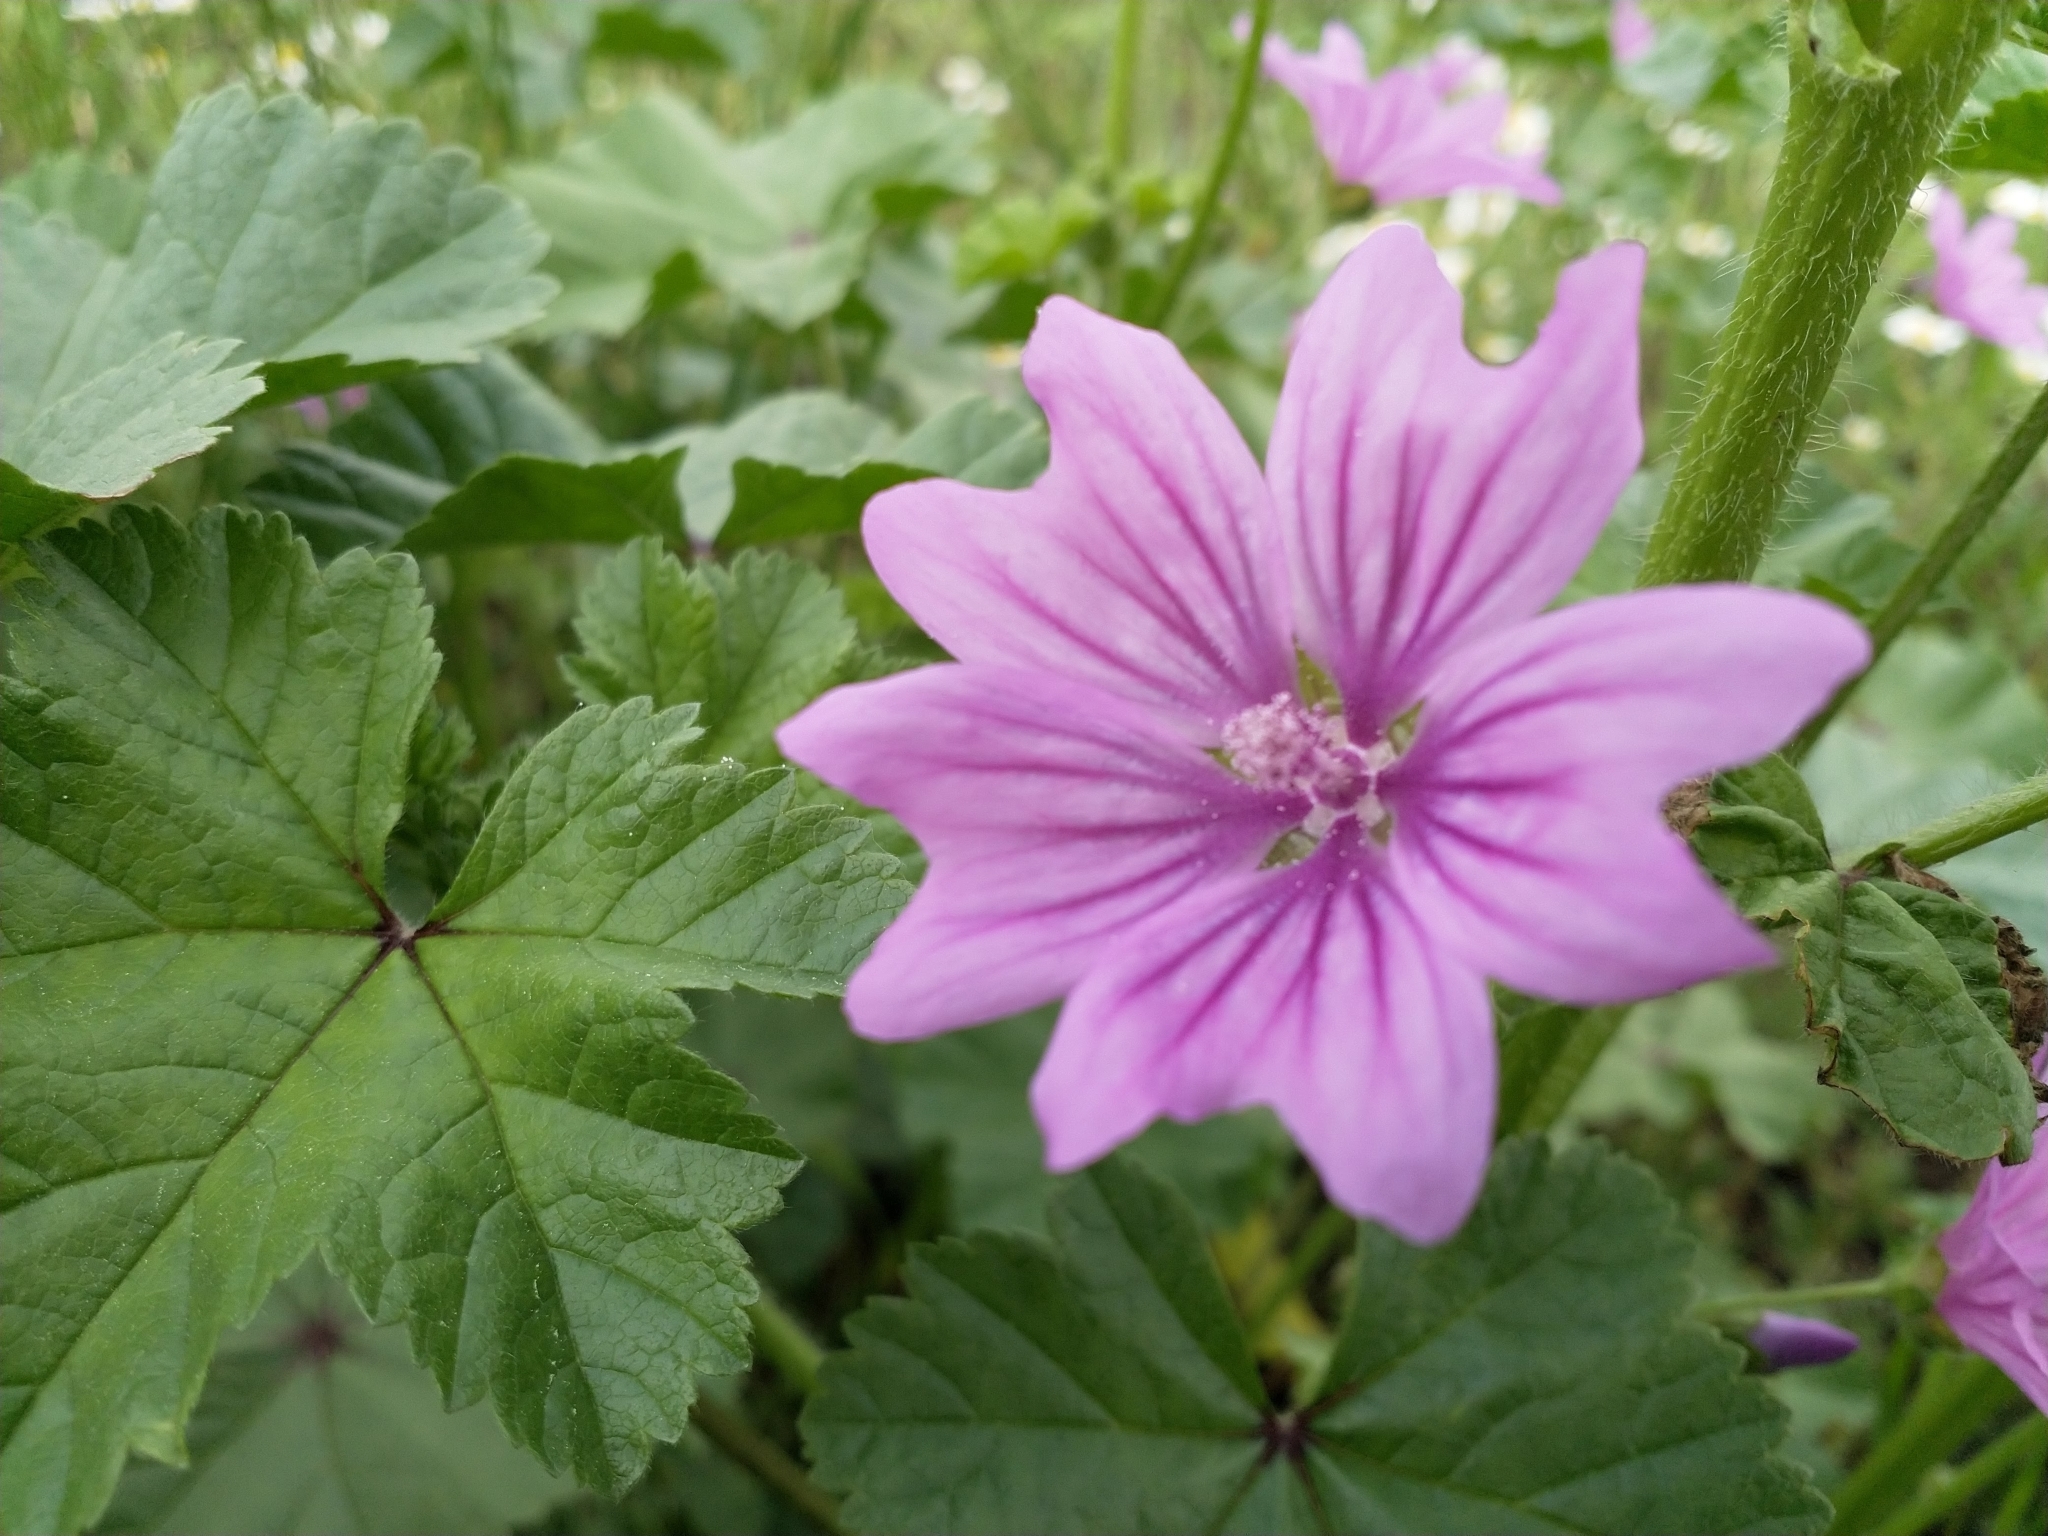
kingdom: Plantae
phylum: Tracheophyta
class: Magnoliopsida
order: Malvales
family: Malvaceae
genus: Malva
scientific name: Malva sylvestris
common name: Common mallow
